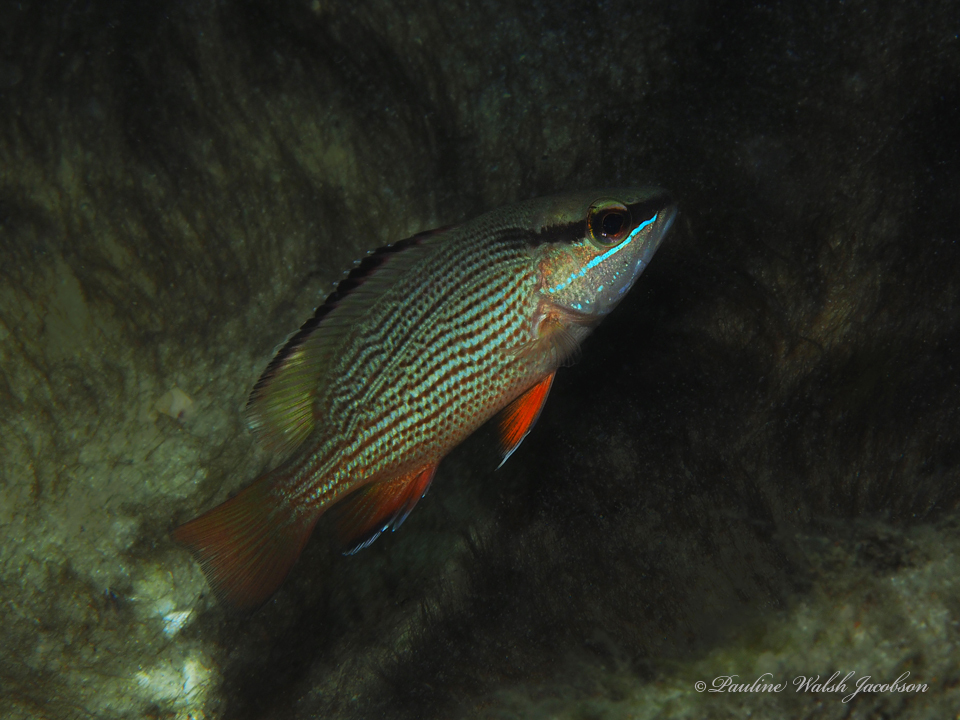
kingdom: Animalia
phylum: Chordata
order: Perciformes
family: Lutjanidae
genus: Lutjanus
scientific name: Lutjanus griseus
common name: Gray snapper
